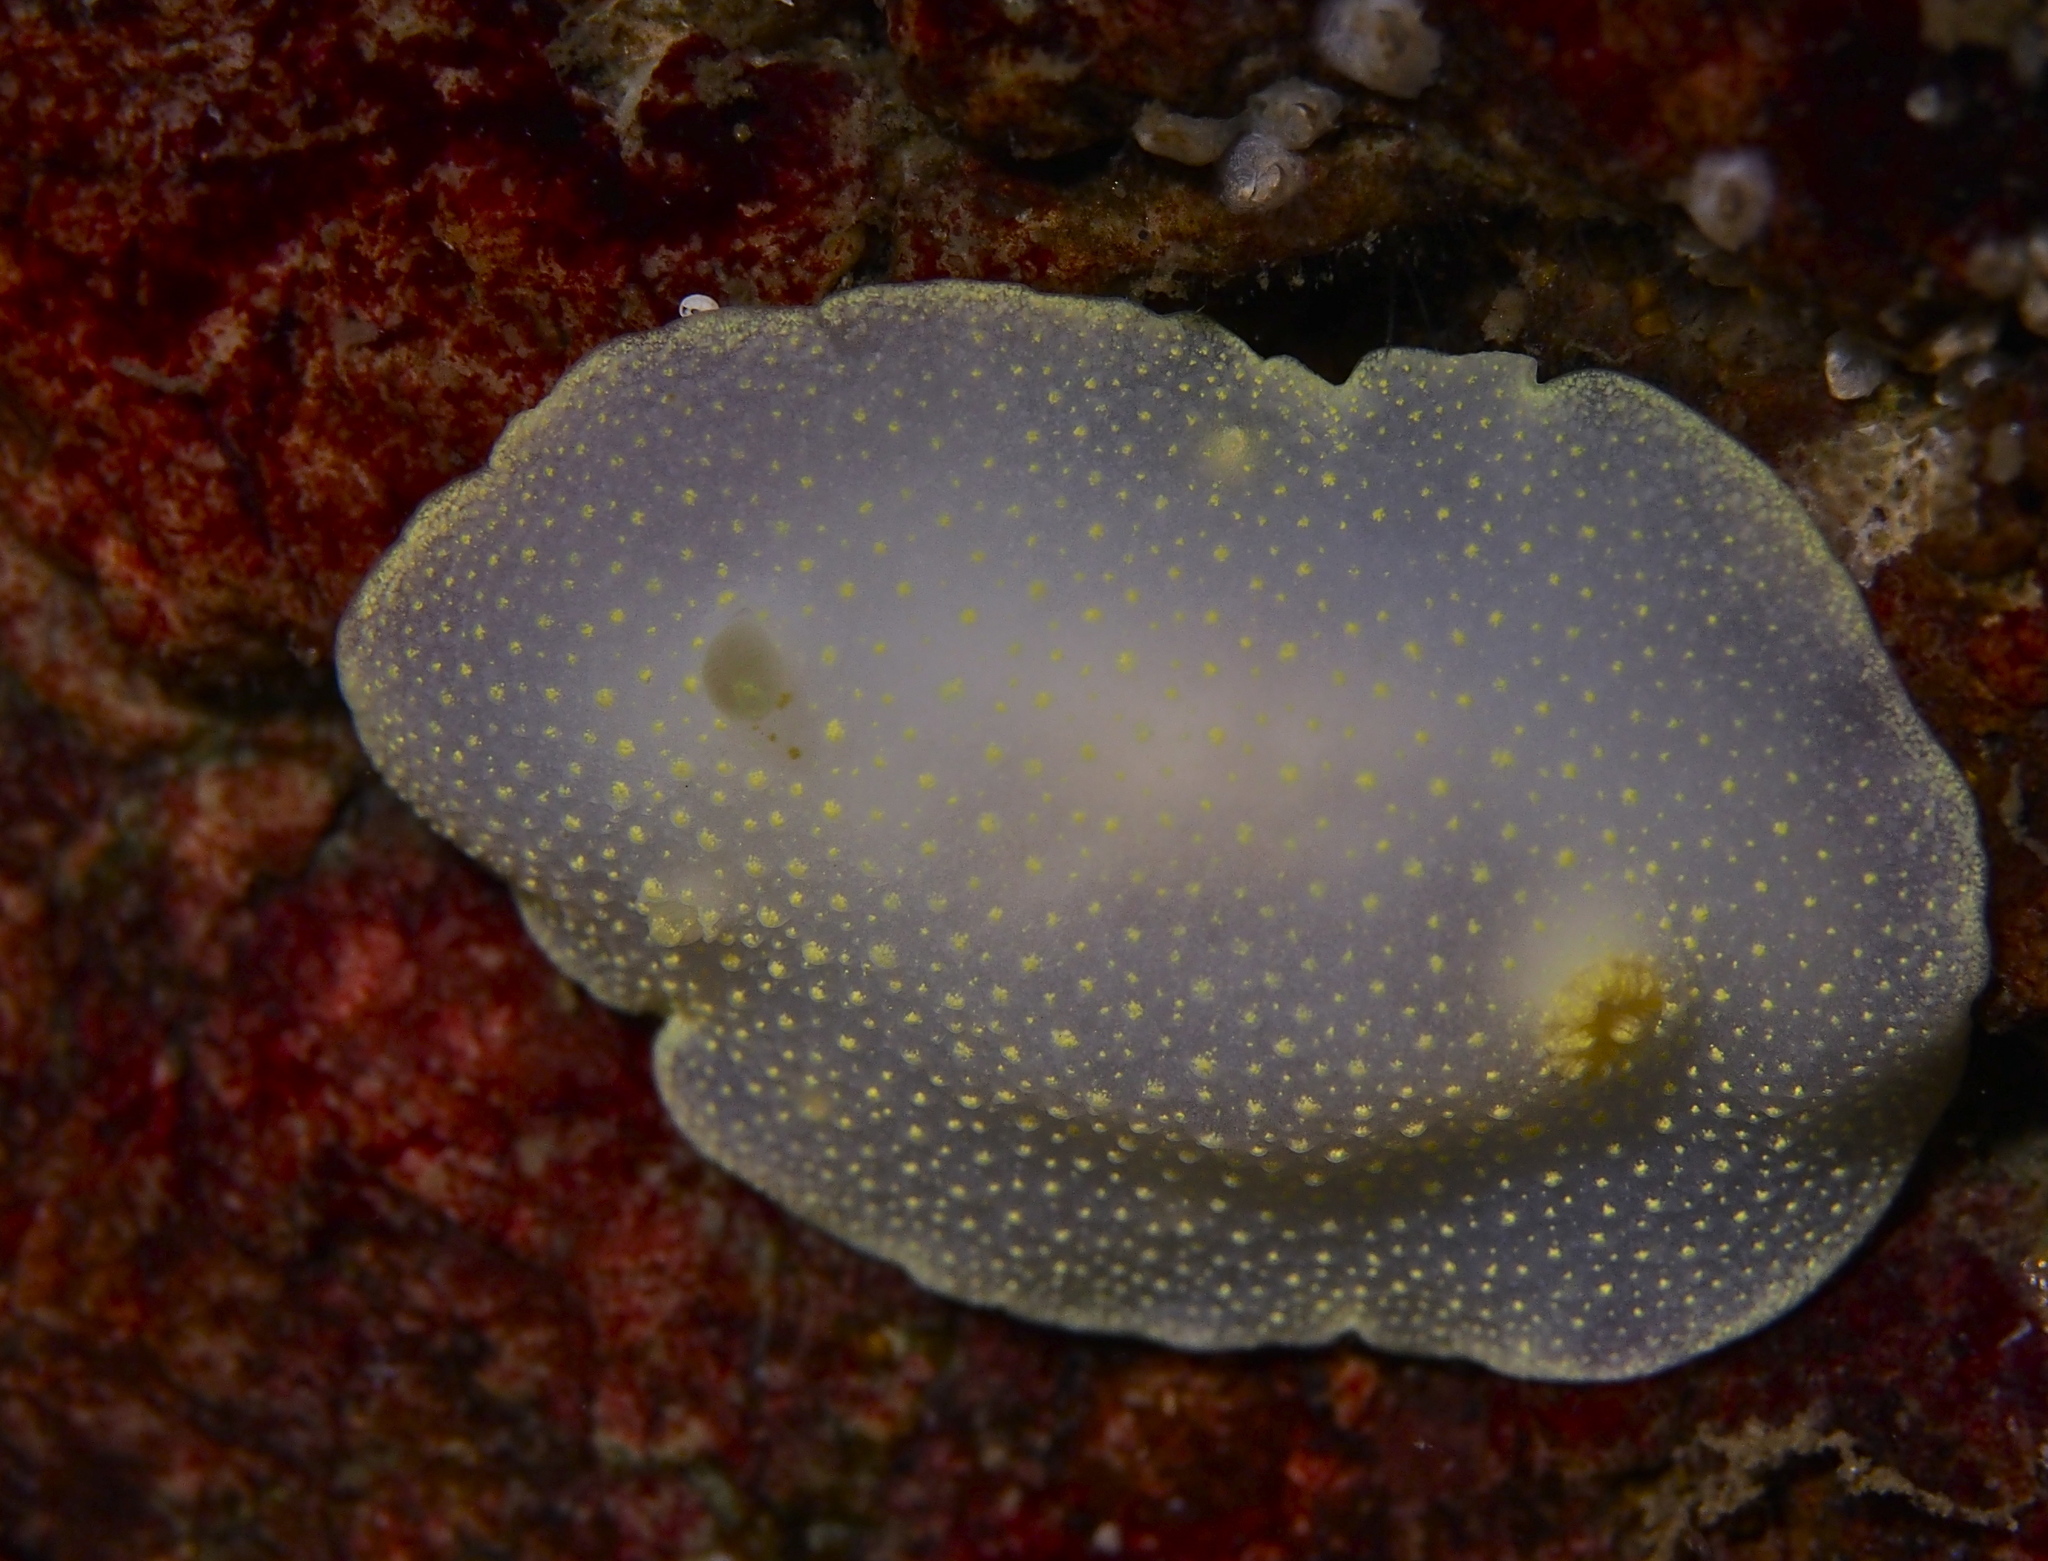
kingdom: Animalia
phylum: Mollusca
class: Gastropoda
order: Nudibranchia
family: Cadlinidae
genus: Cadlina
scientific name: Cadlina laevis
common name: White atlantic cadlina
